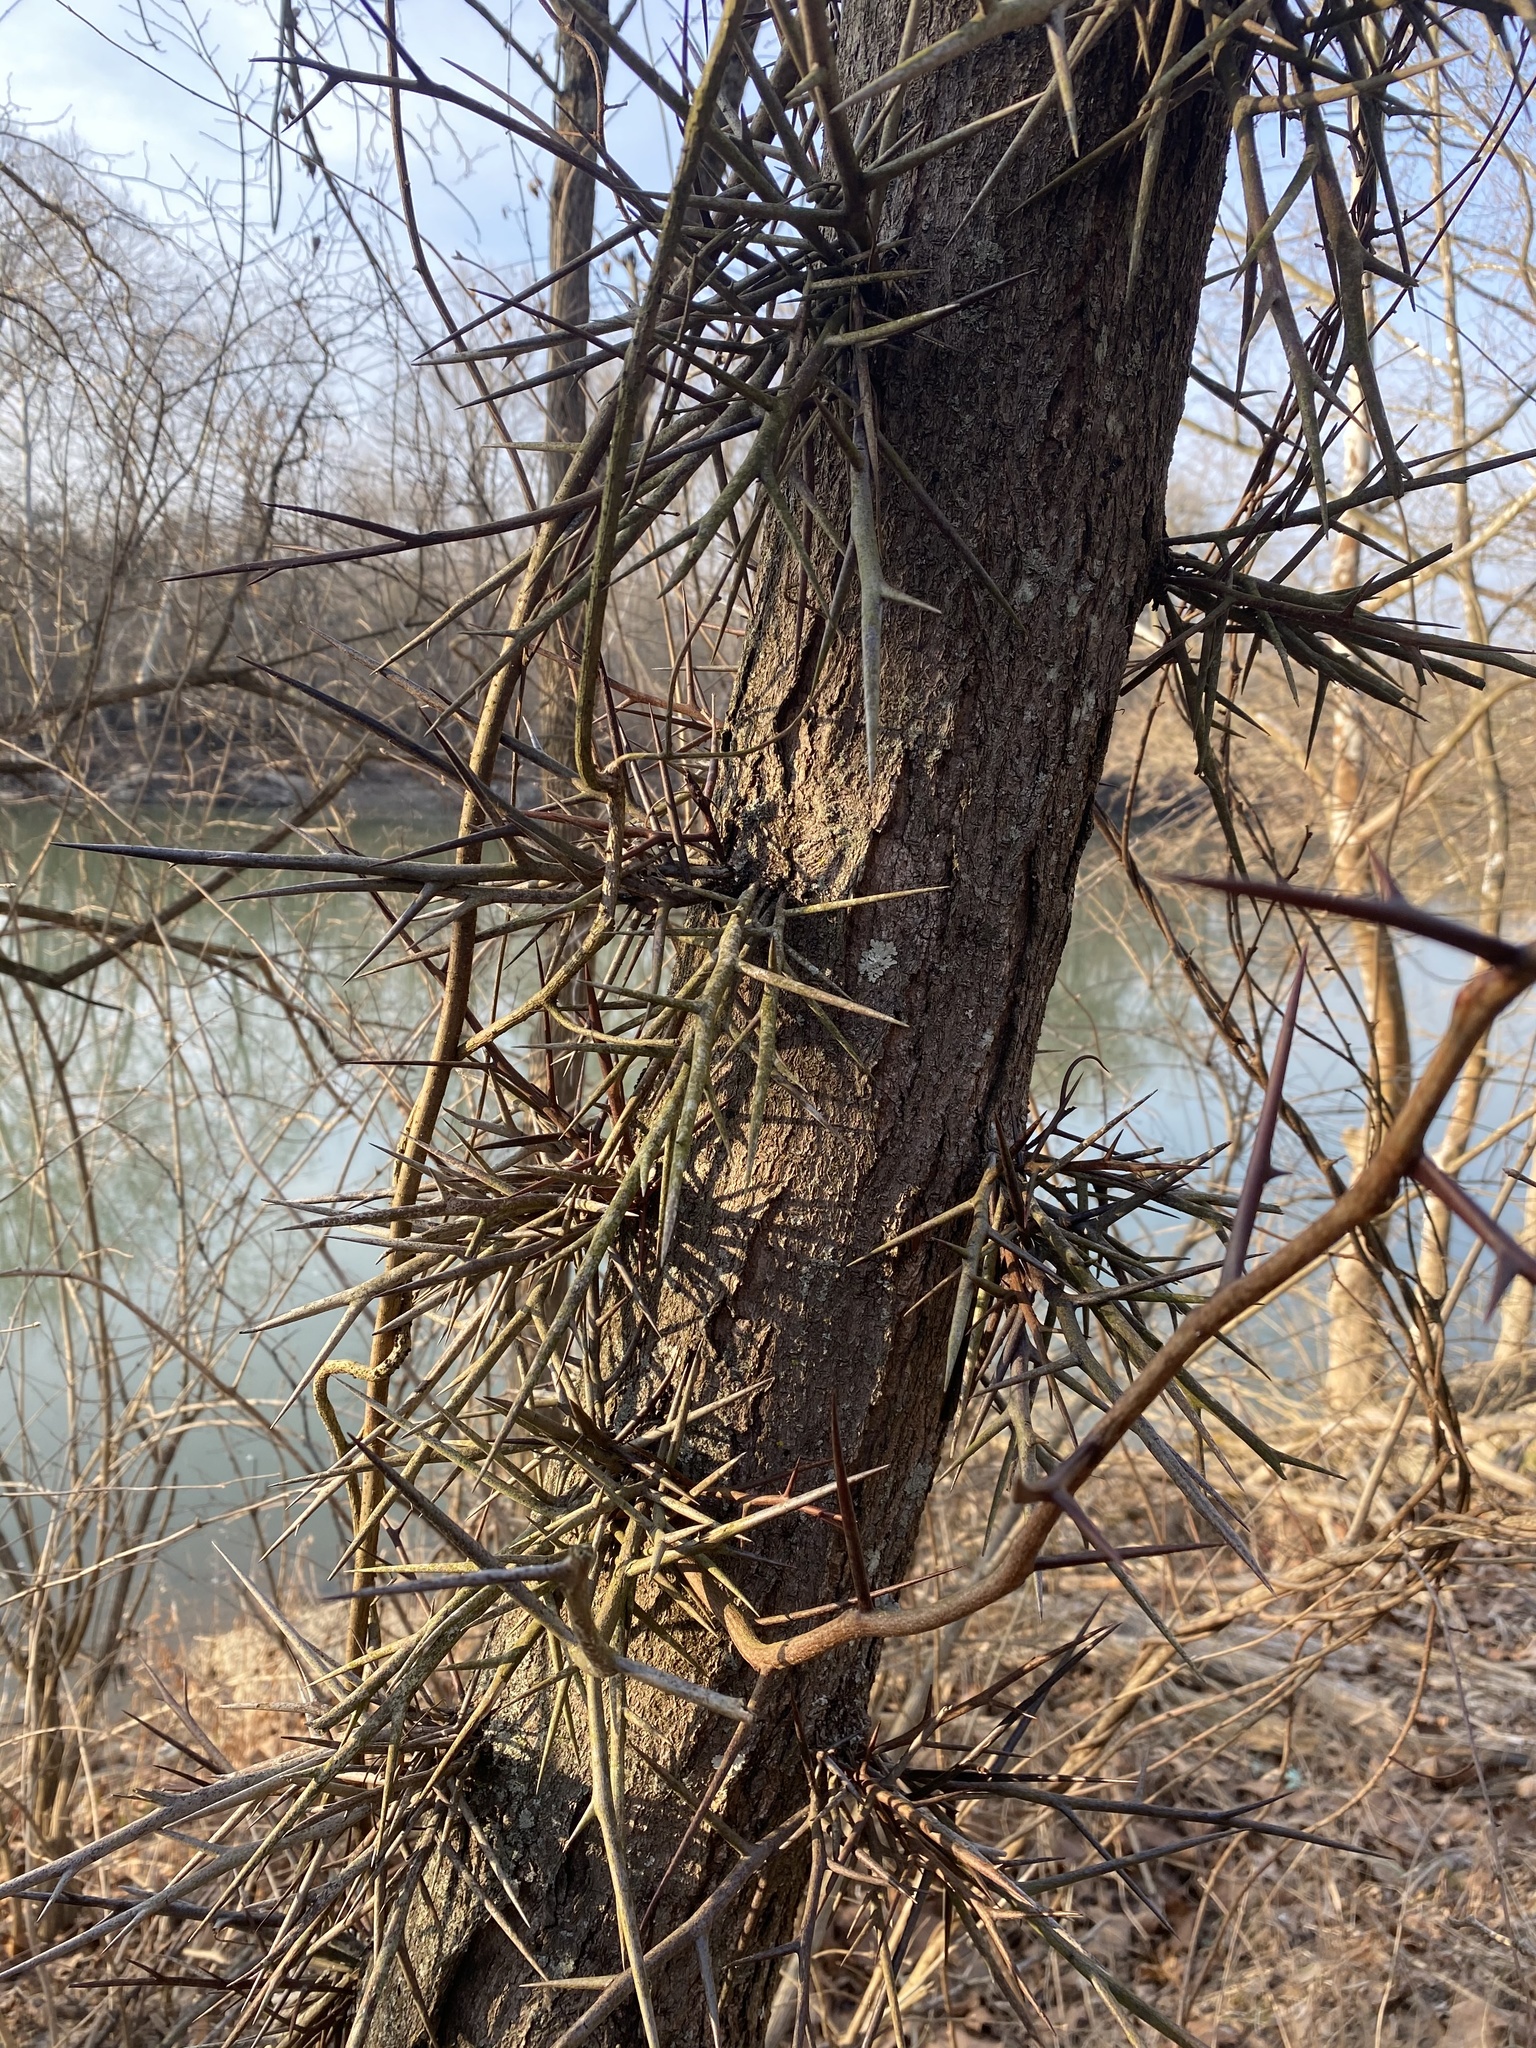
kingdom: Plantae
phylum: Tracheophyta
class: Magnoliopsida
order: Fabales
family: Fabaceae
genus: Gleditsia
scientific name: Gleditsia triacanthos
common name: Common honeylocust
